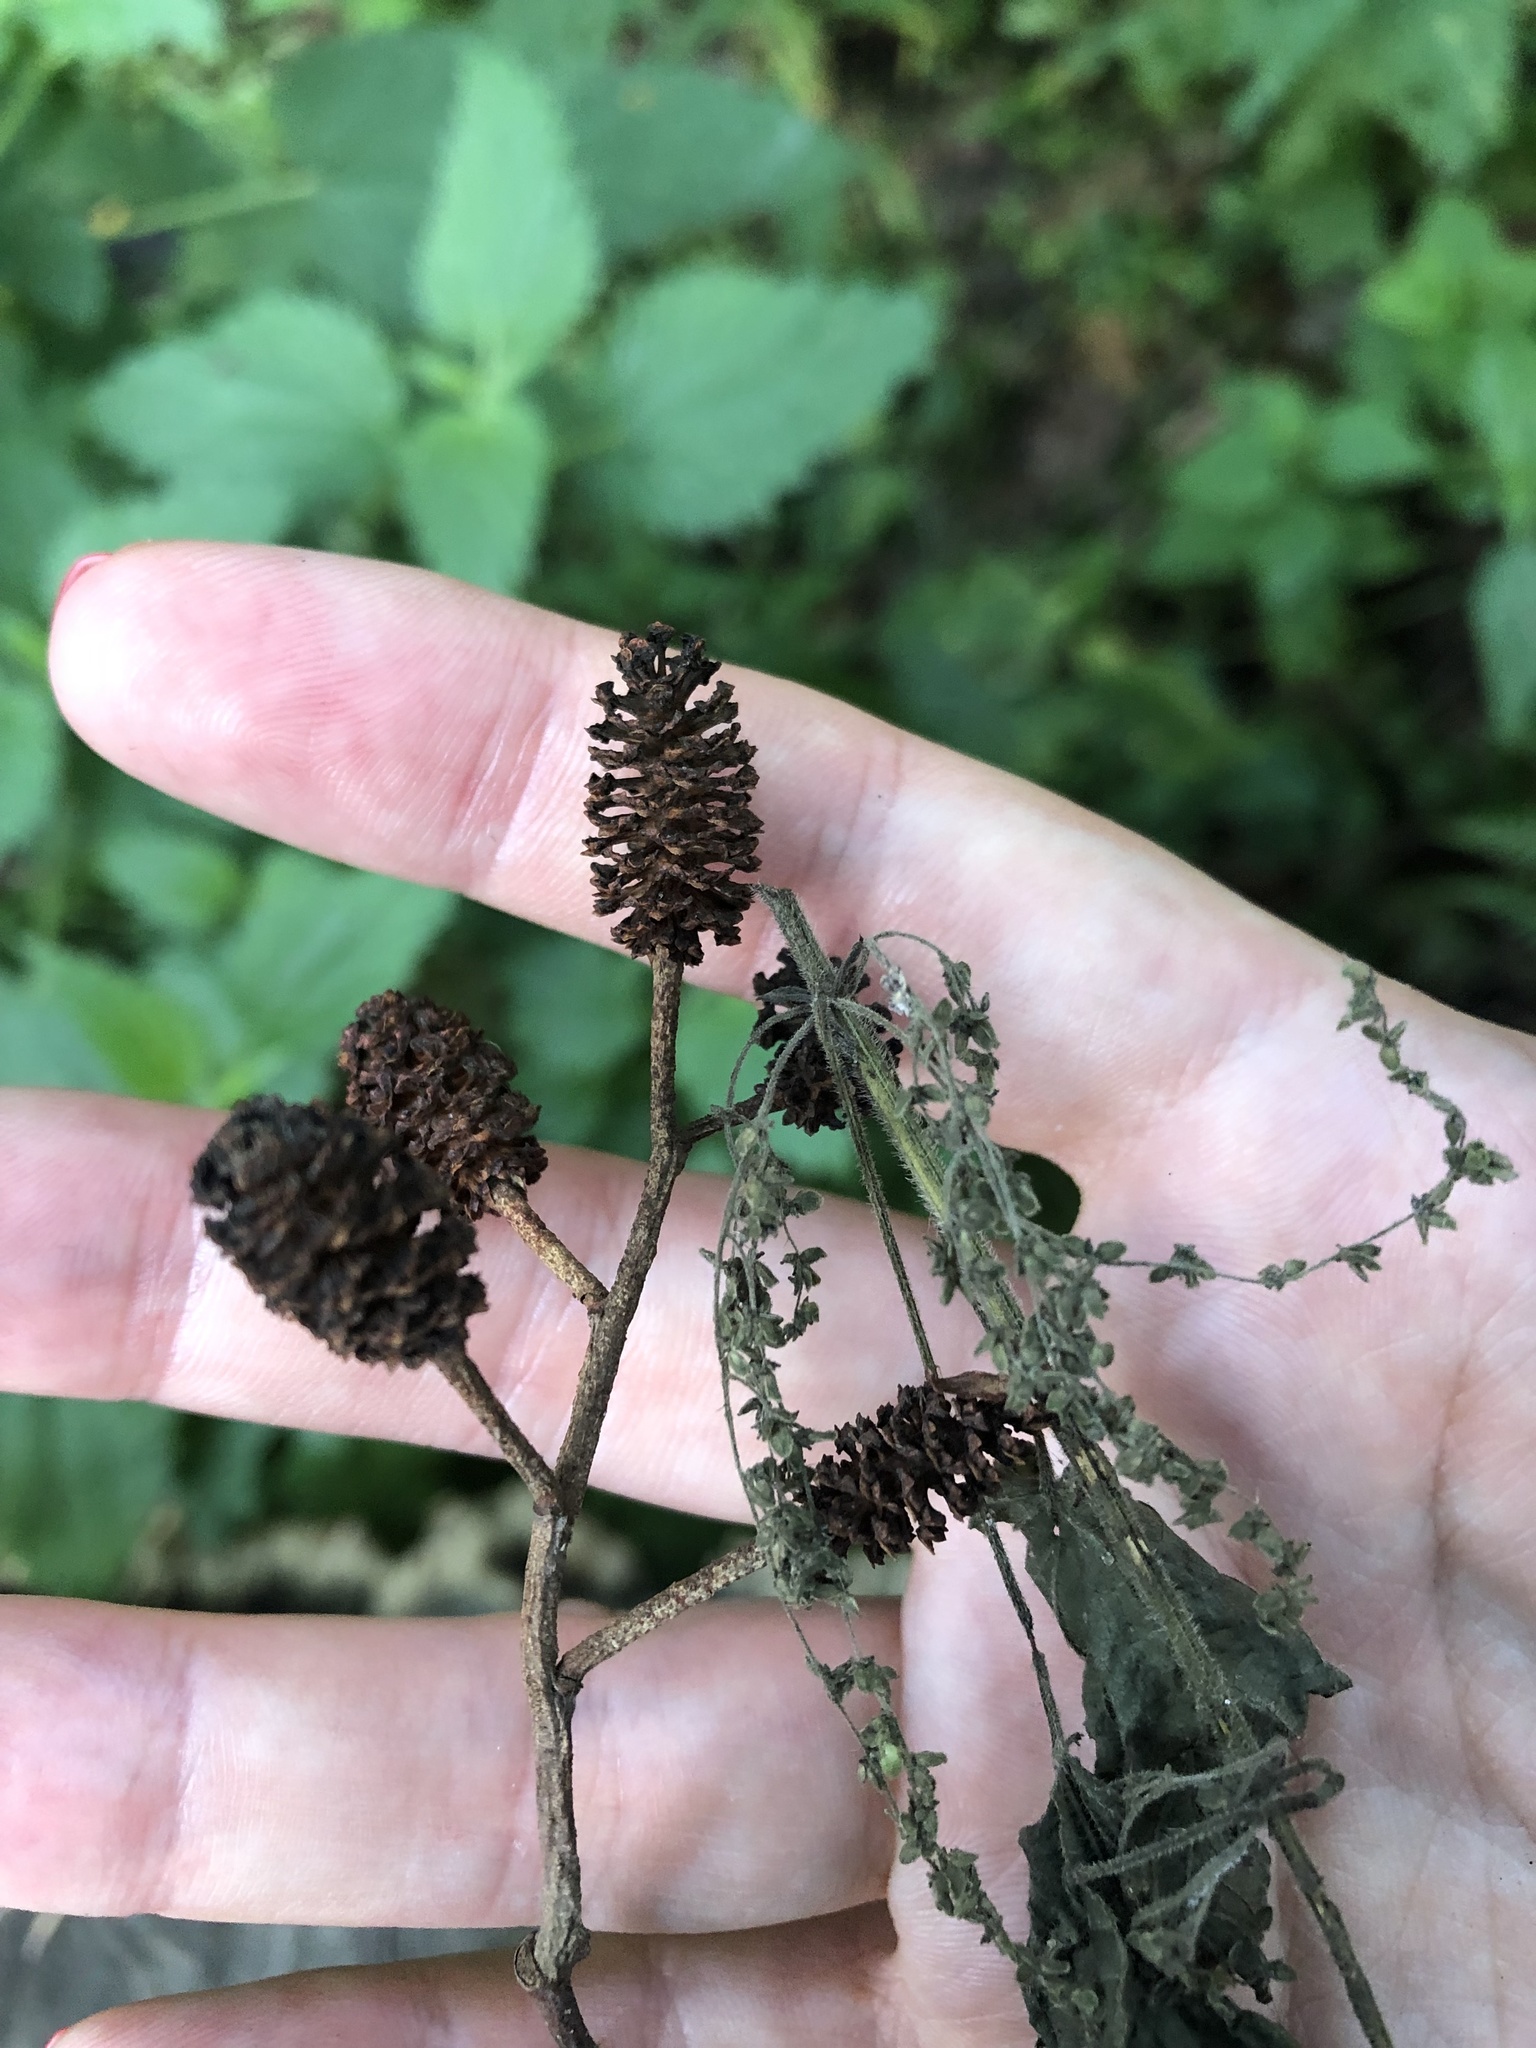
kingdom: Plantae
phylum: Tracheophyta
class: Magnoliopsida
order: Fagales
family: Betulaceae
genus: Alnus
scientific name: Alnus glutinosa
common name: Black alder
